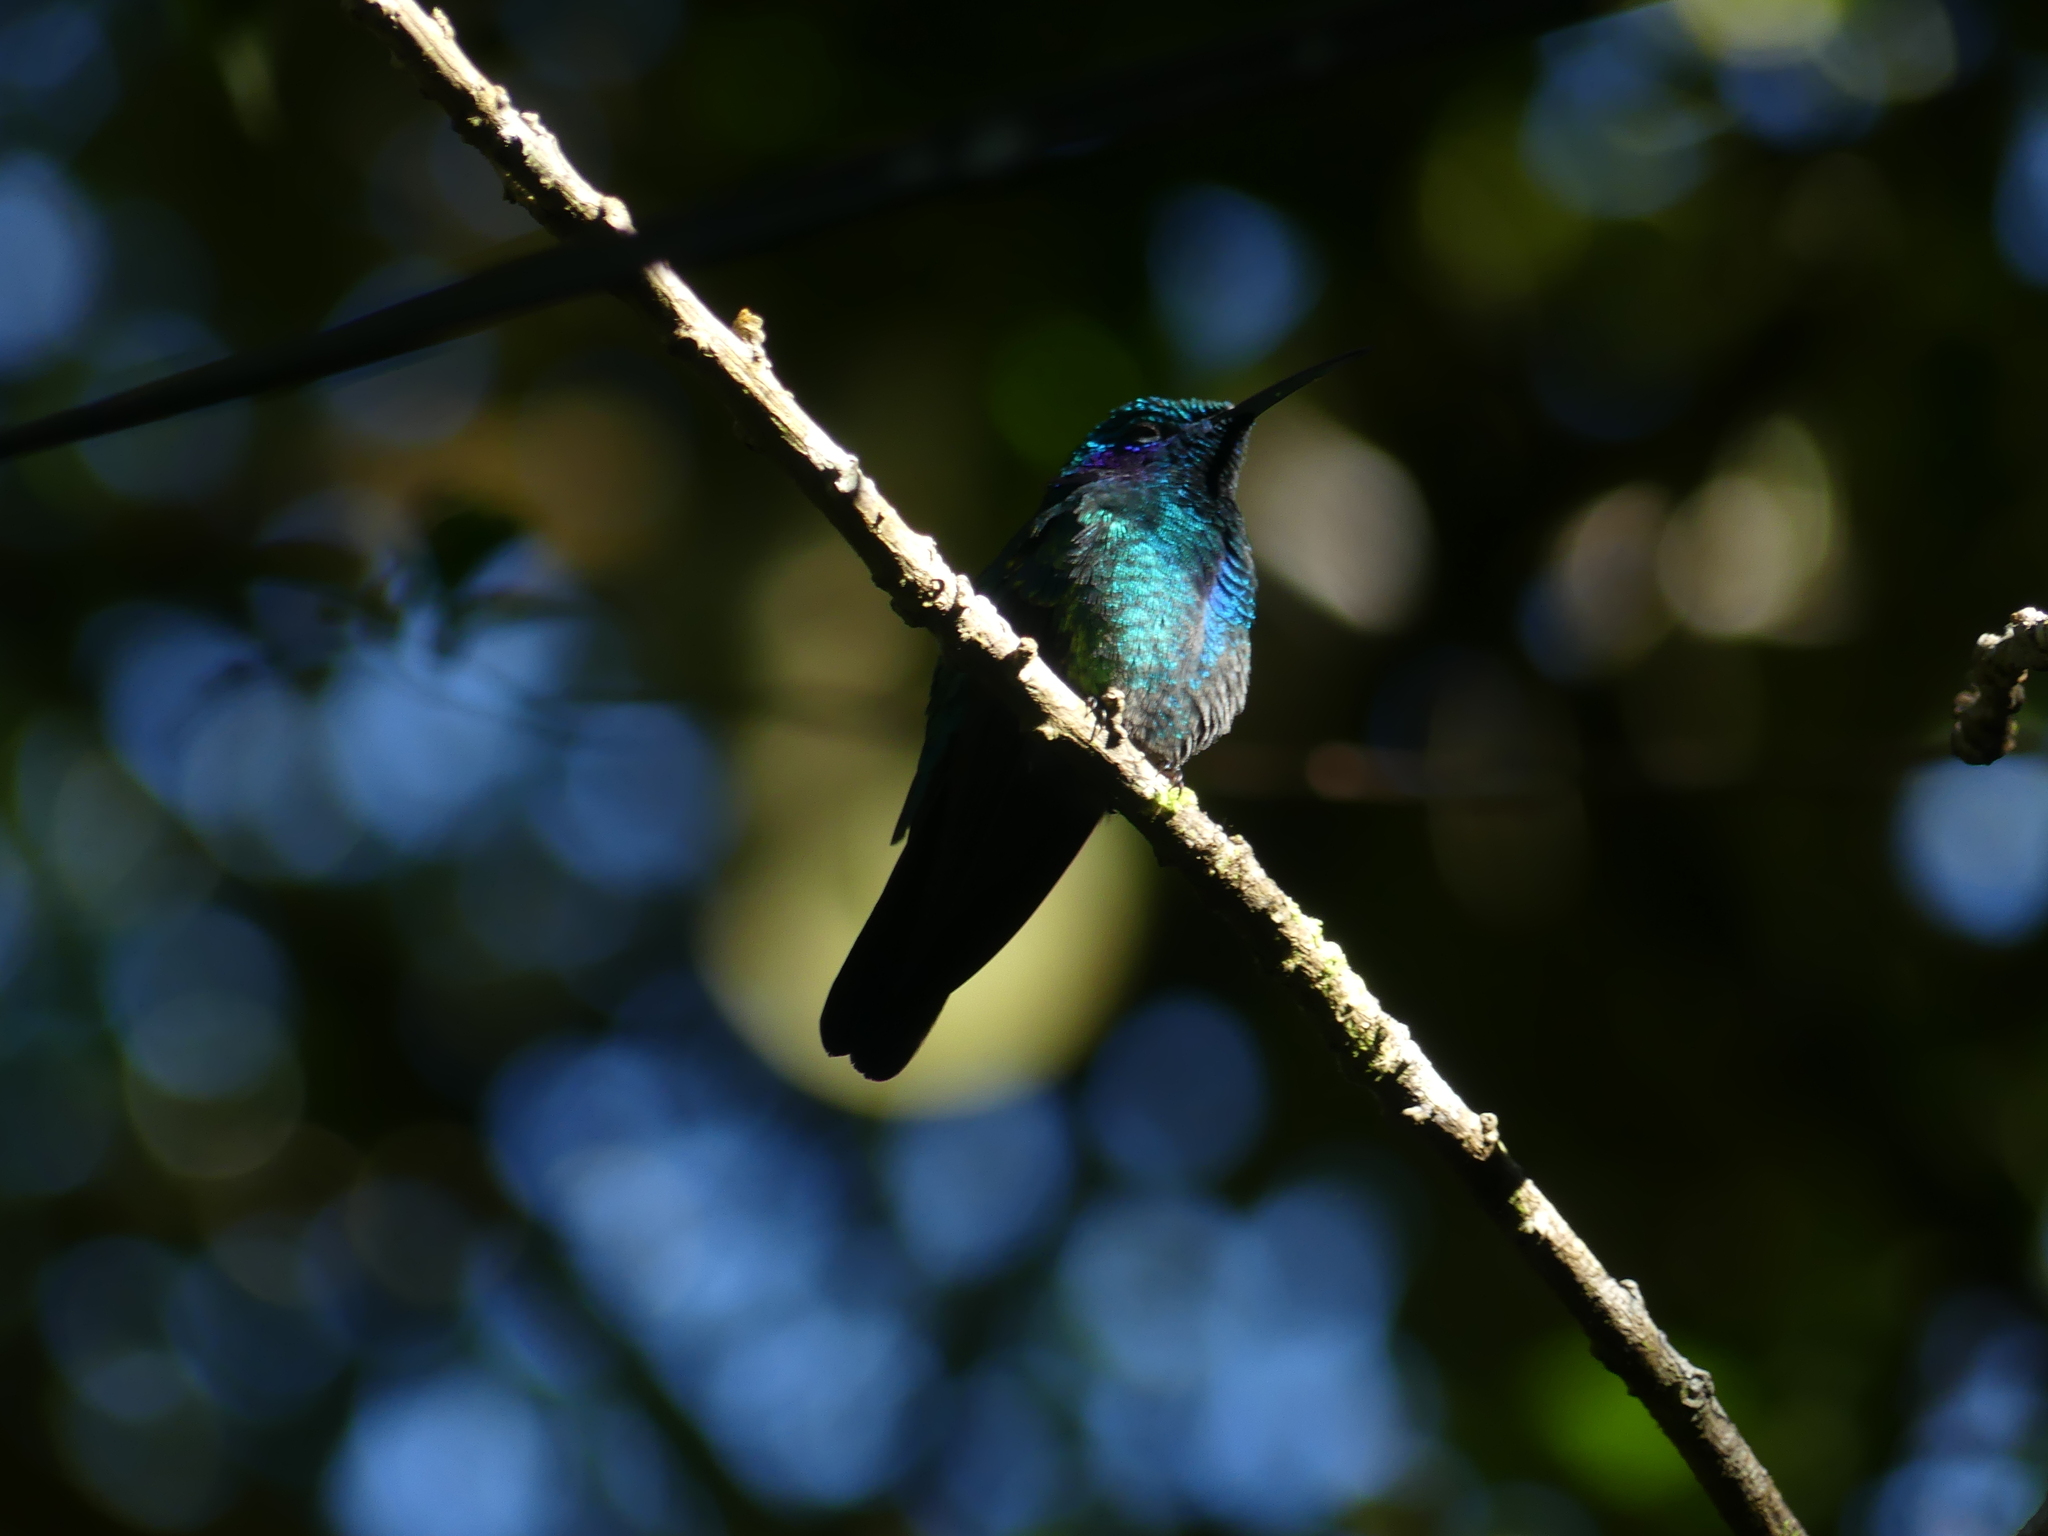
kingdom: Animalia
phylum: Chordata
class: Aves
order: Apodiformes
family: Trochilidae
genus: Colibri
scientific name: Colibri cyanotus
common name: Lesser violetear
